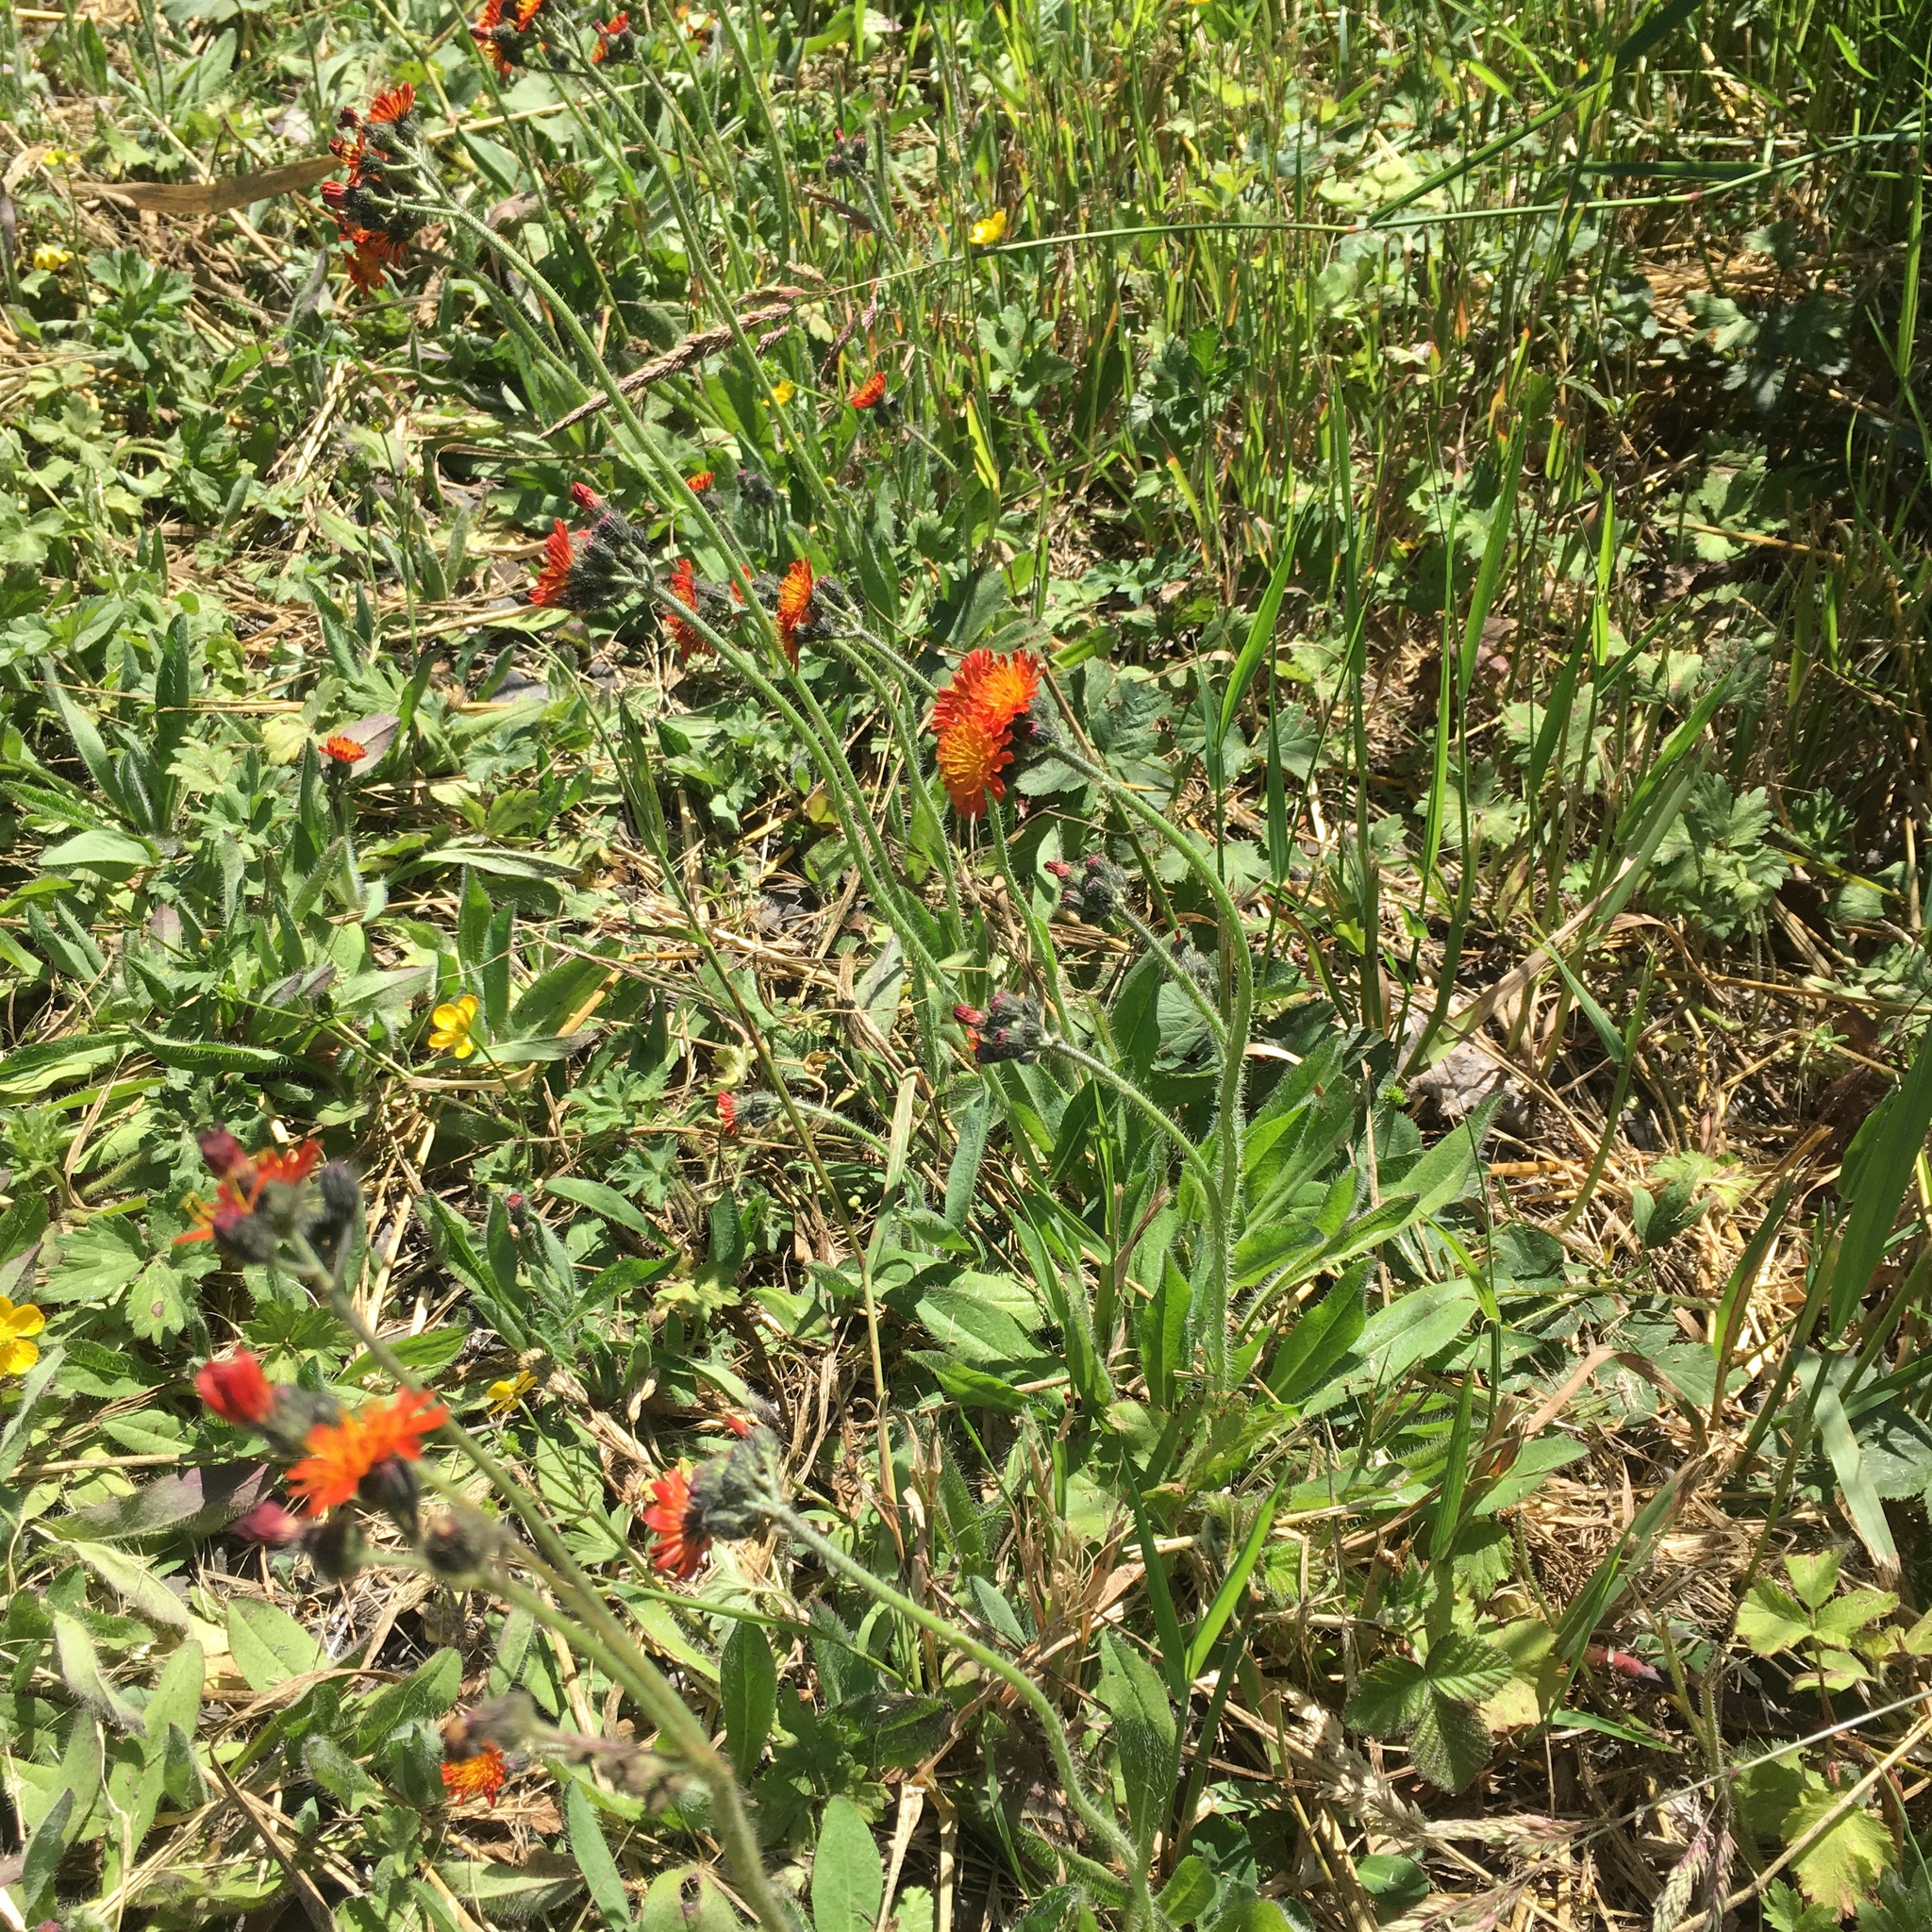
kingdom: Plantae
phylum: Tracheophyta
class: Magnoliopsida
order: Asterales
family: Asteraceae
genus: Pilosella
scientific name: Pilosella aurantiaca
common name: Fox-and-cubs
